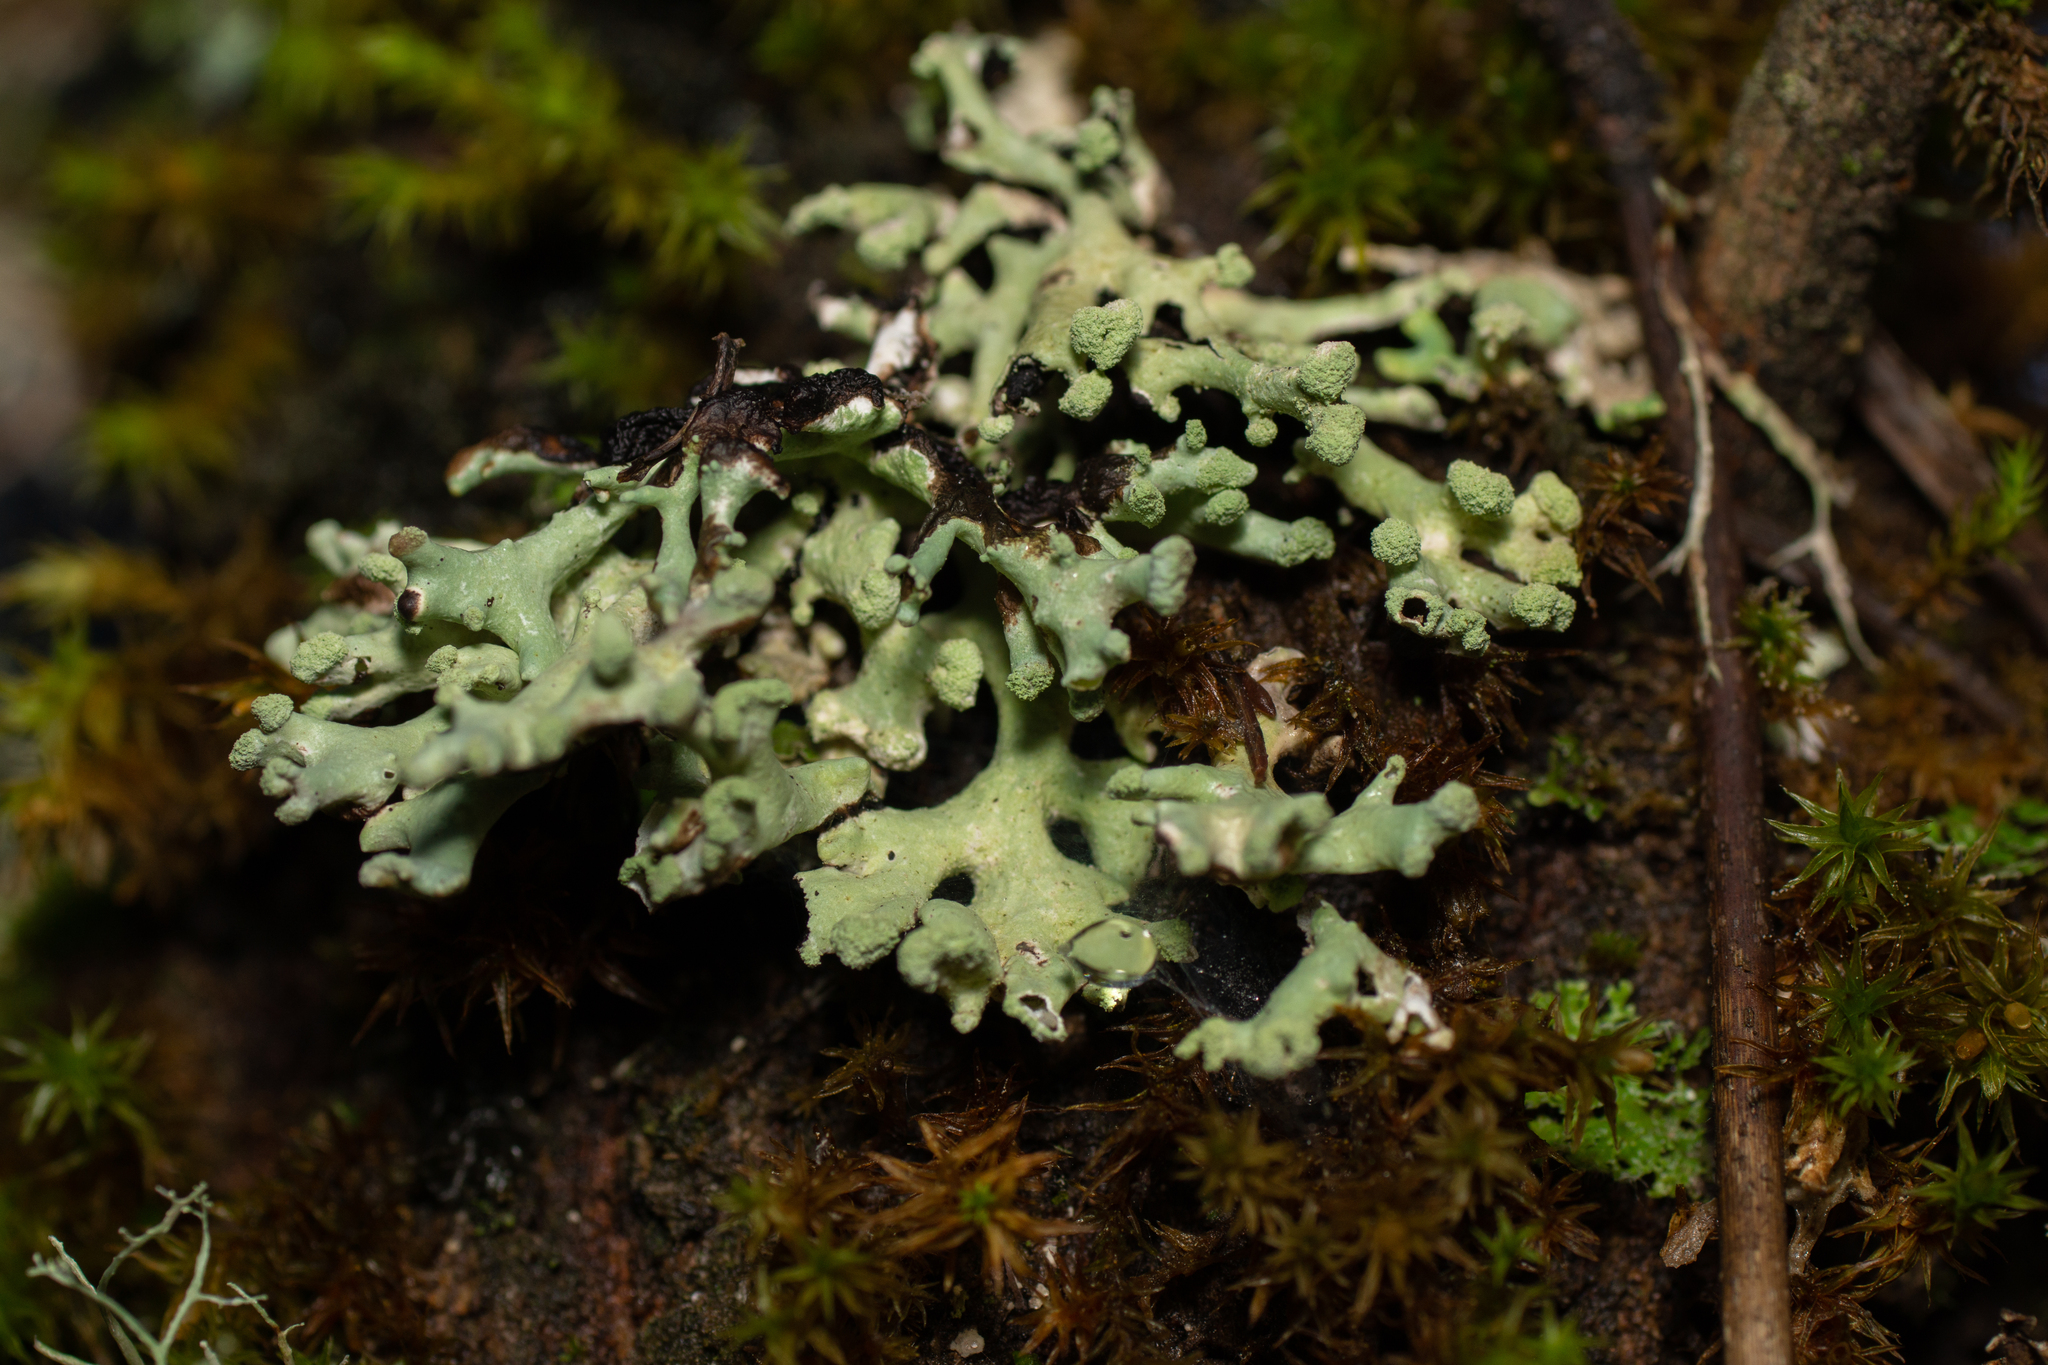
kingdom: Fungi
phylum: Ascomycota
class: Lecanoromycetes
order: Lecanorales
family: Parmeliaceae
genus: Hypogymnia
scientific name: Hypogymnia tubulosa
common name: Powder-headed tube lichen
